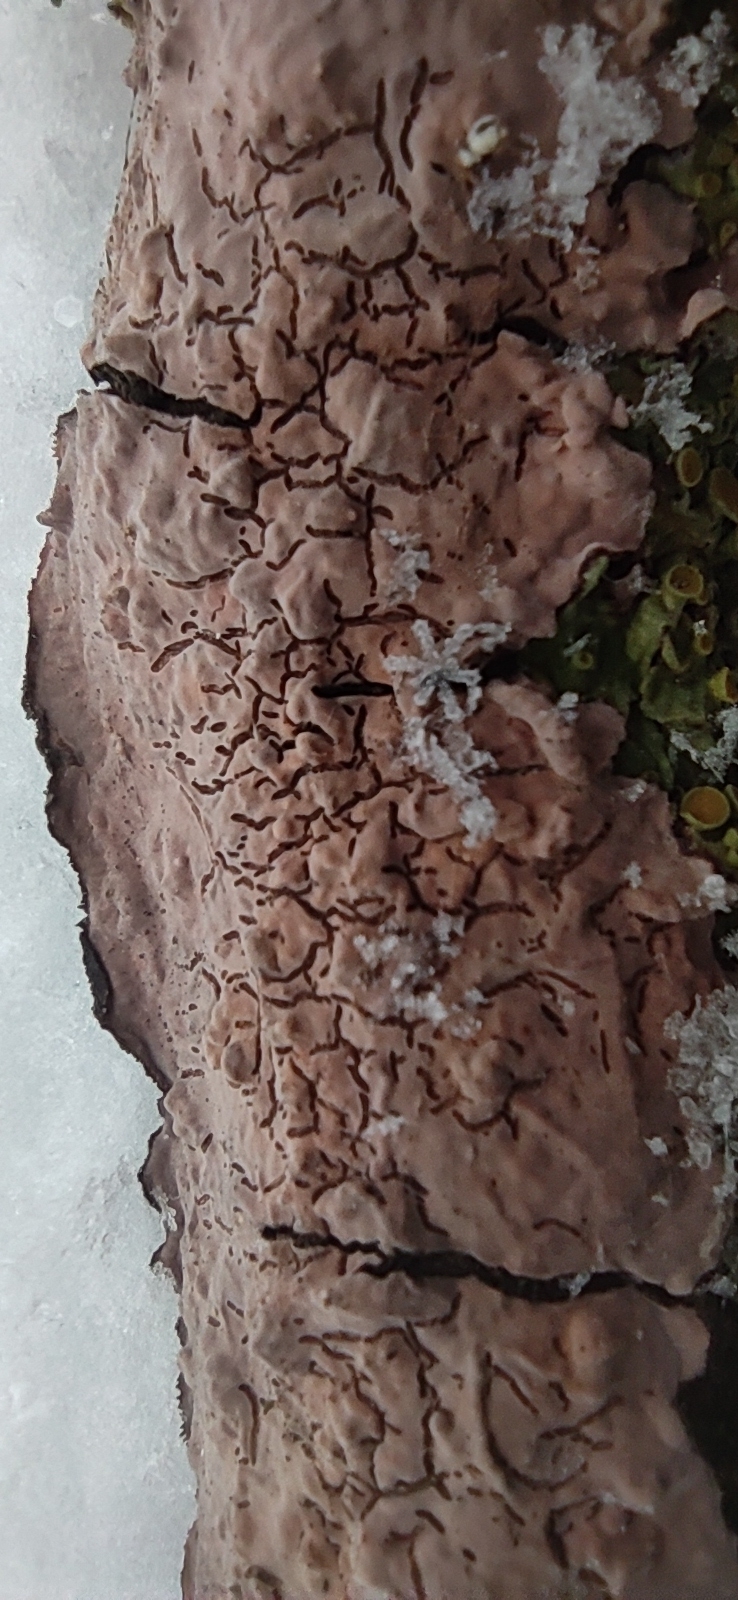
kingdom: Fungi
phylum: Basidiomycota
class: Agaricomycetes
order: Russulales
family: Peniophoraceae
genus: Peniophora
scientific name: Peniophora quercina
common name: Oak crust
